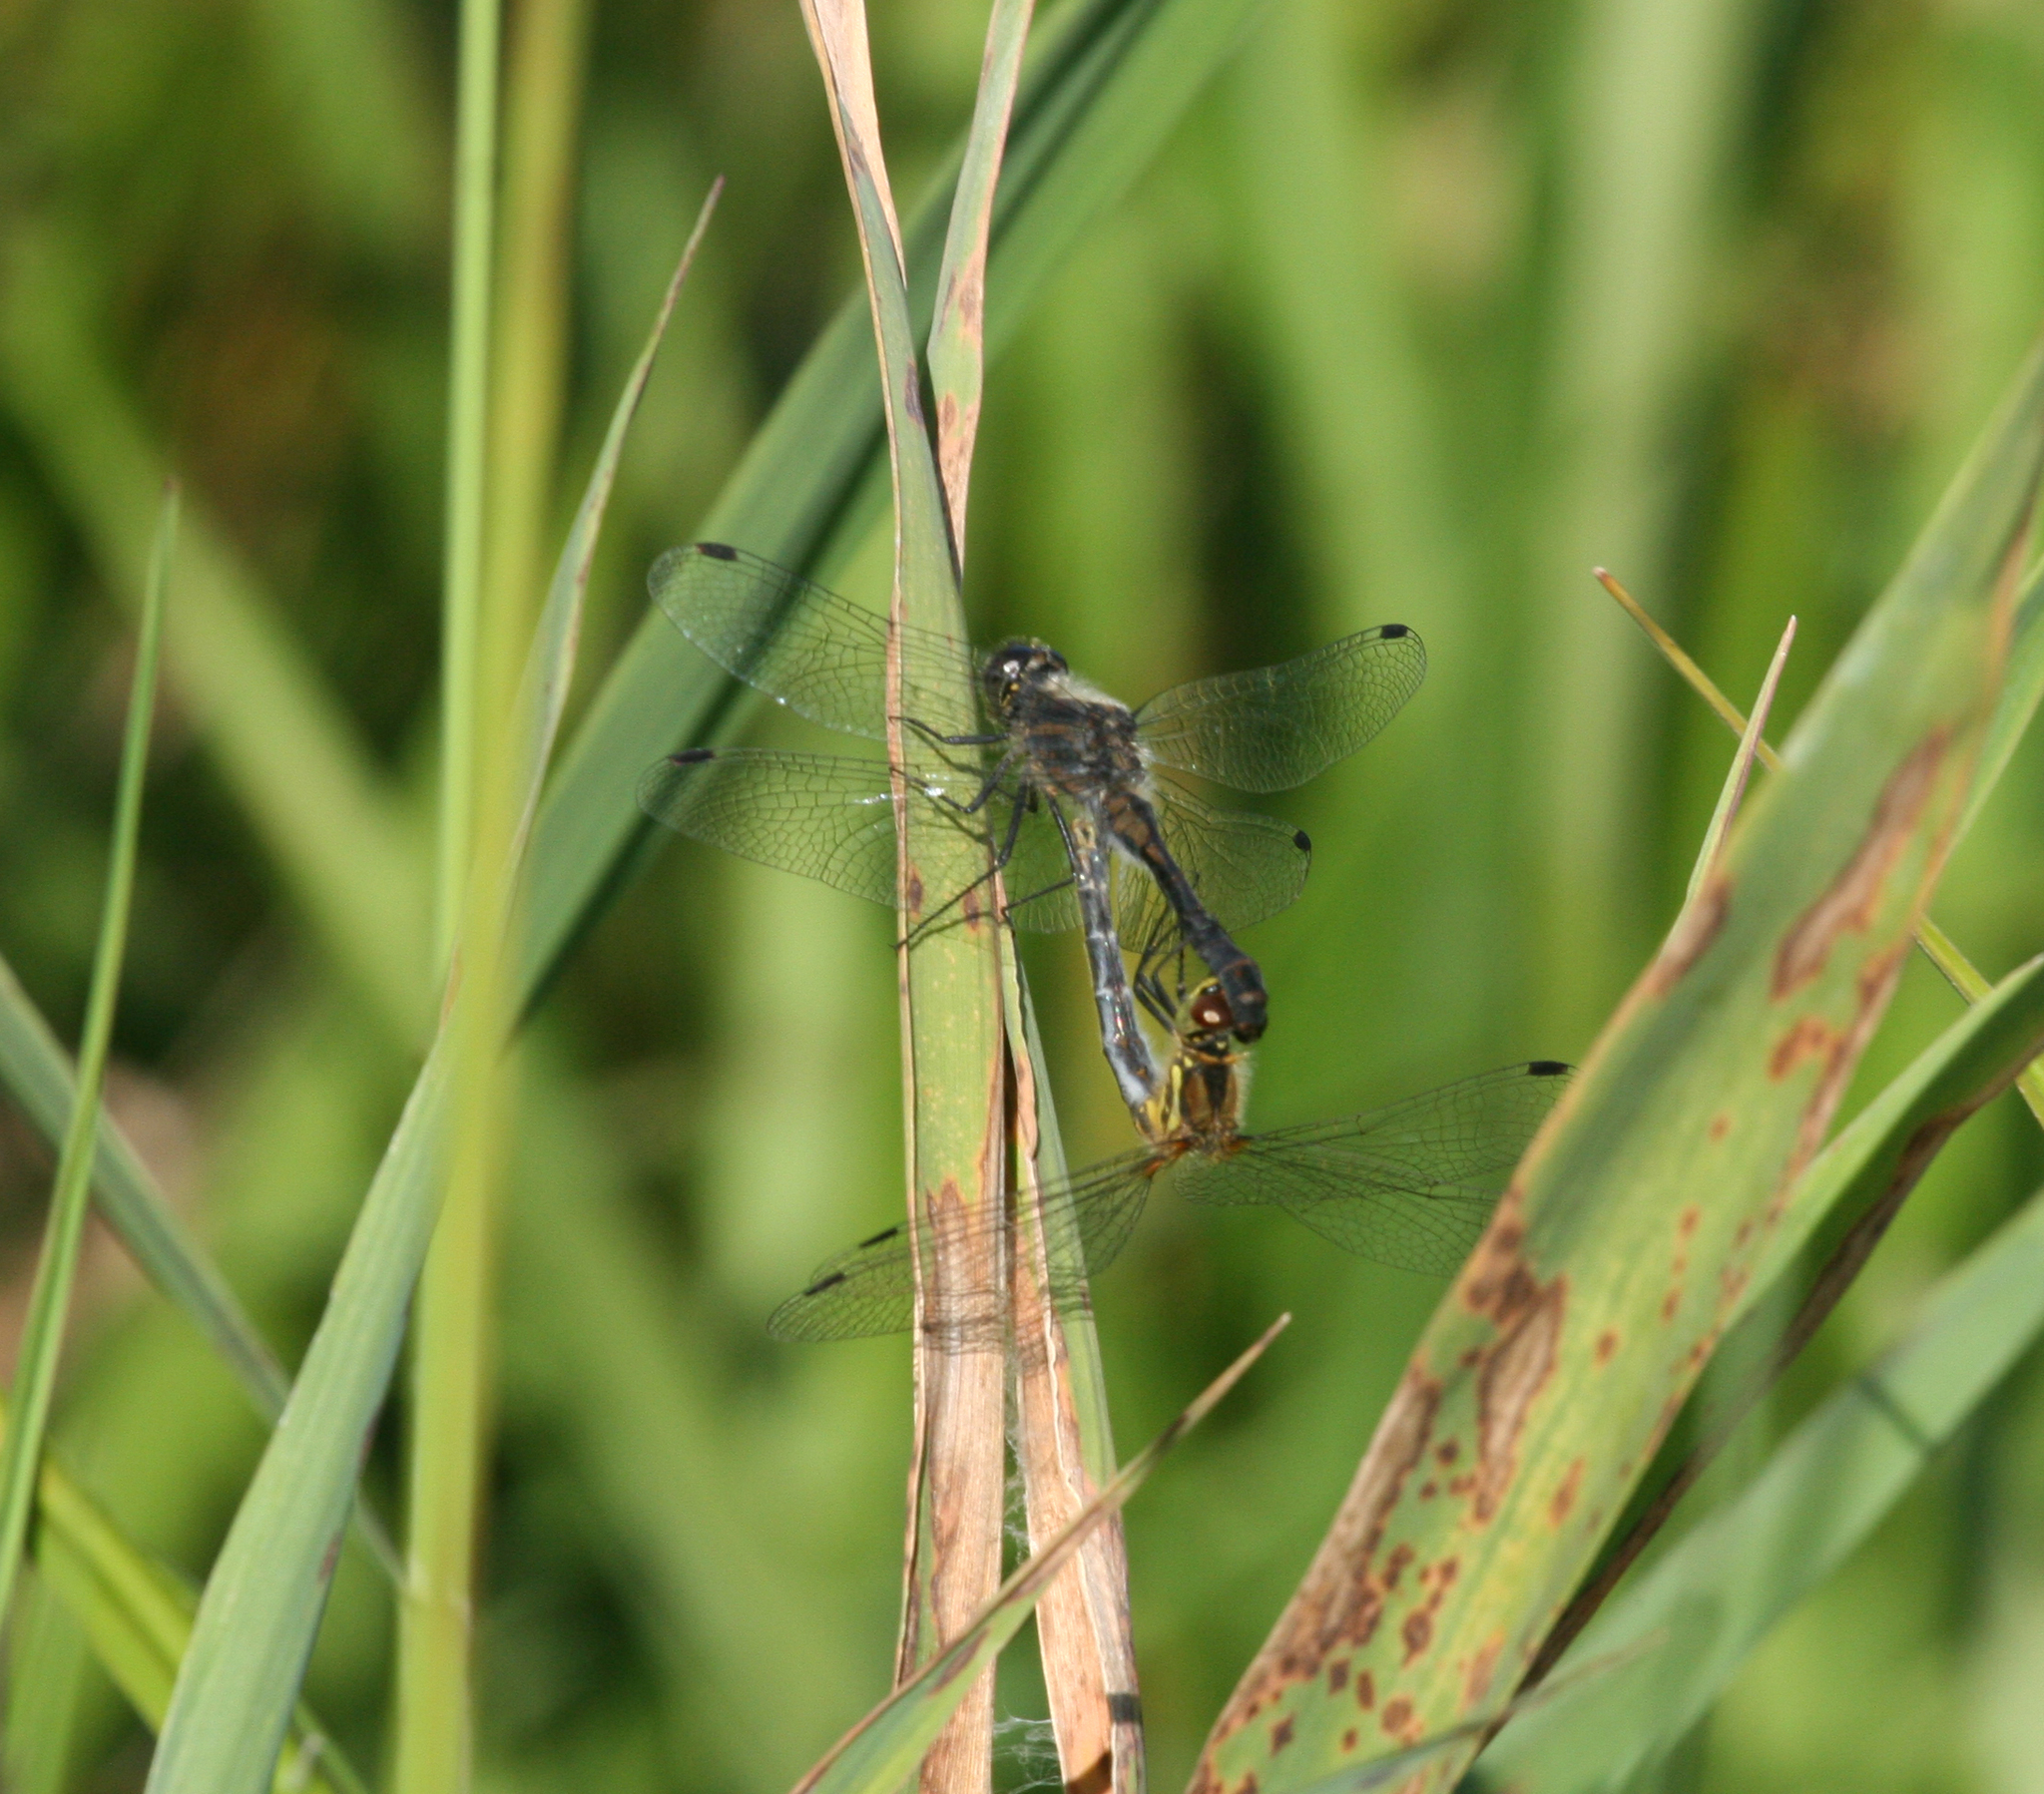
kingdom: Animalia
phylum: Arthropoda
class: Insecta
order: Odonata
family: Libellulidae
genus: Sympetrum
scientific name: Sympetrum danae
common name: Black darter
